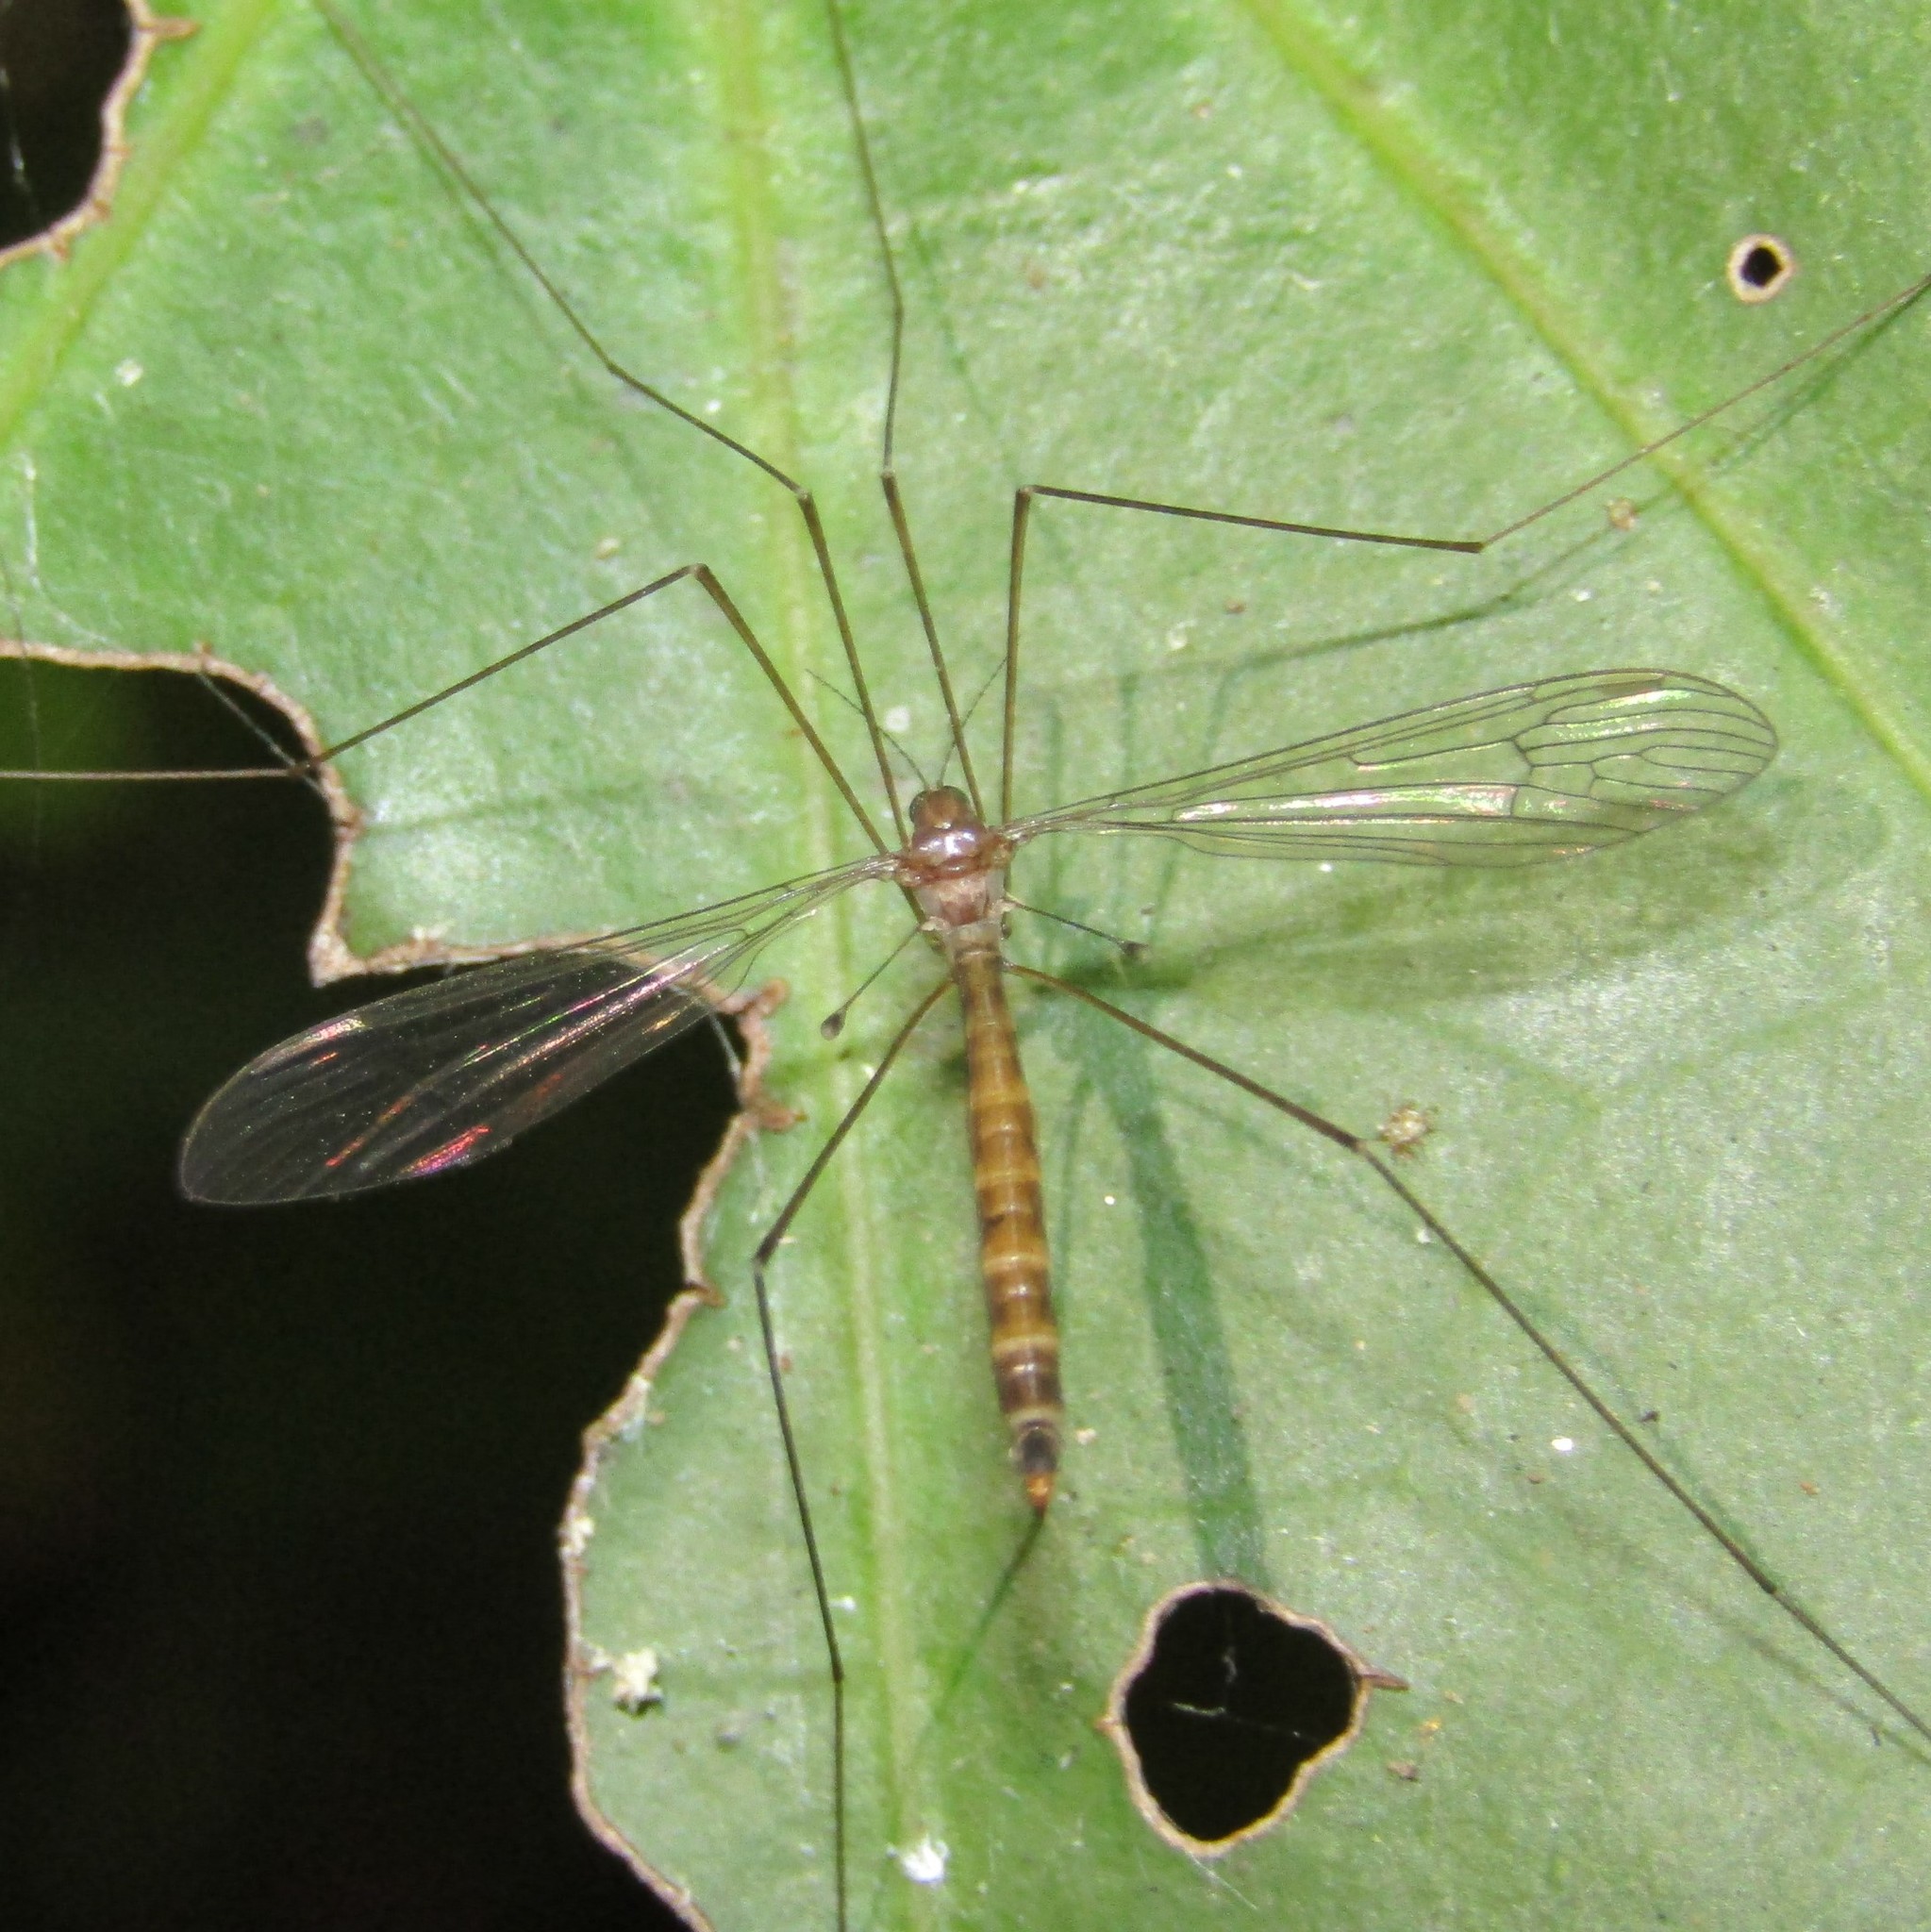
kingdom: Animalia
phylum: Arthropoda
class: Insecta
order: Diptera
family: Limoniidae
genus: Limnophilella
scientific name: Limnophilella delicatula
